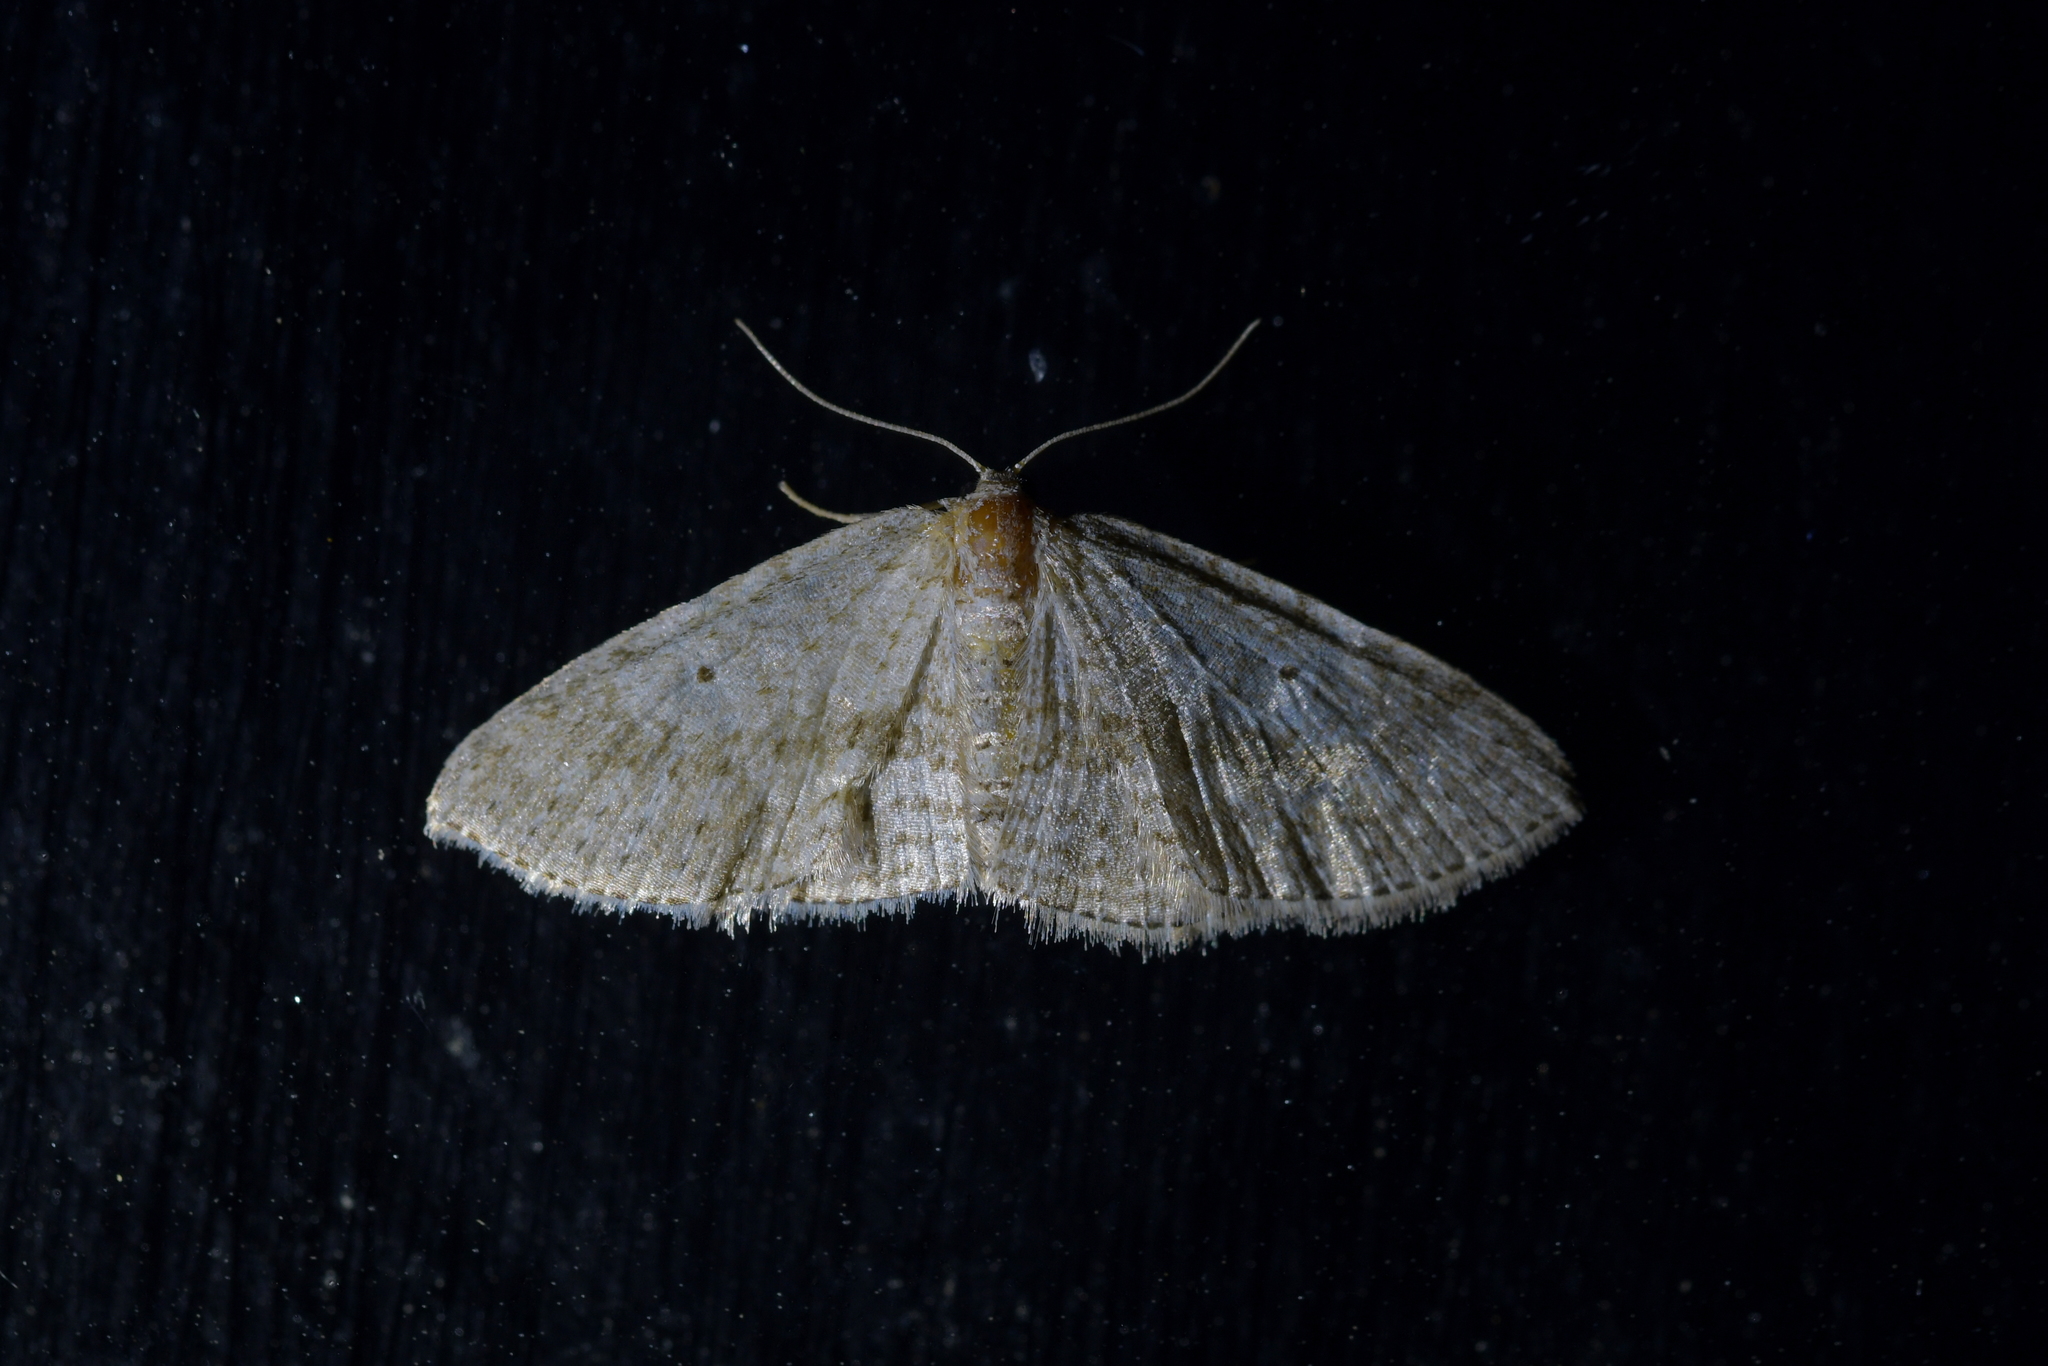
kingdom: Animalia
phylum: Arthropoda
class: Insecta
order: Lepidoptera
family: Geometridae
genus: Poecilasthena
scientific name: Poecilasthena schistaria
